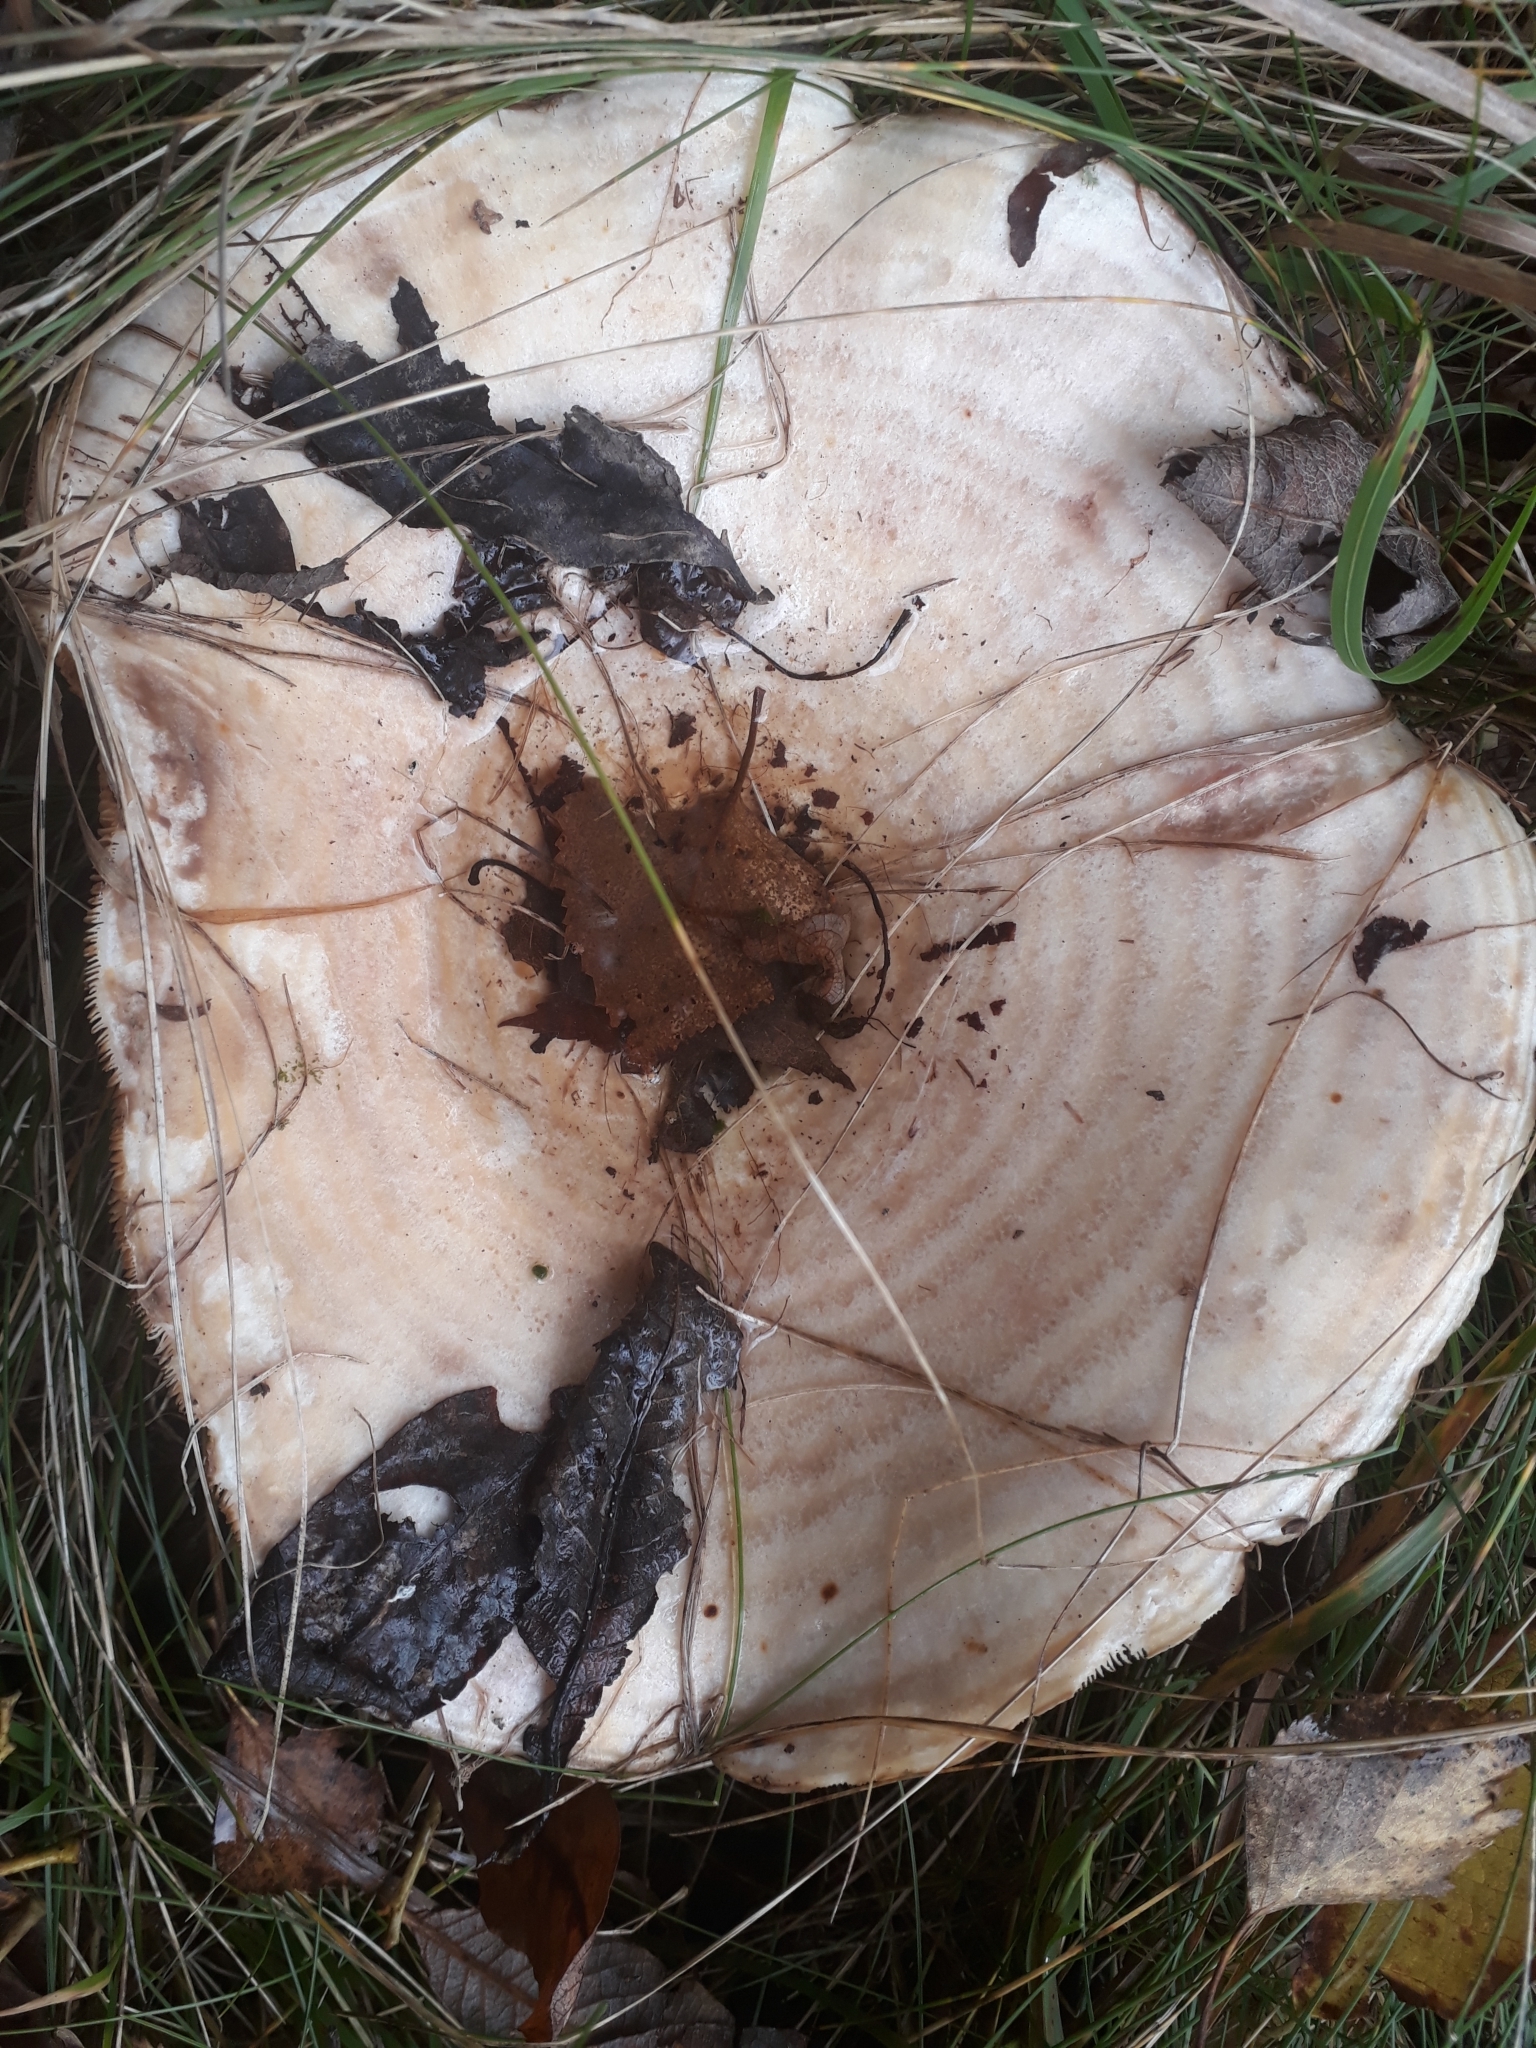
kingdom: Fungi
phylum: Basidiomycota
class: Agaricomycetes
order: Russulales
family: Russulaceae
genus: Lactarius
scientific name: Lactarius resimus
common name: Rollrim milkcap
